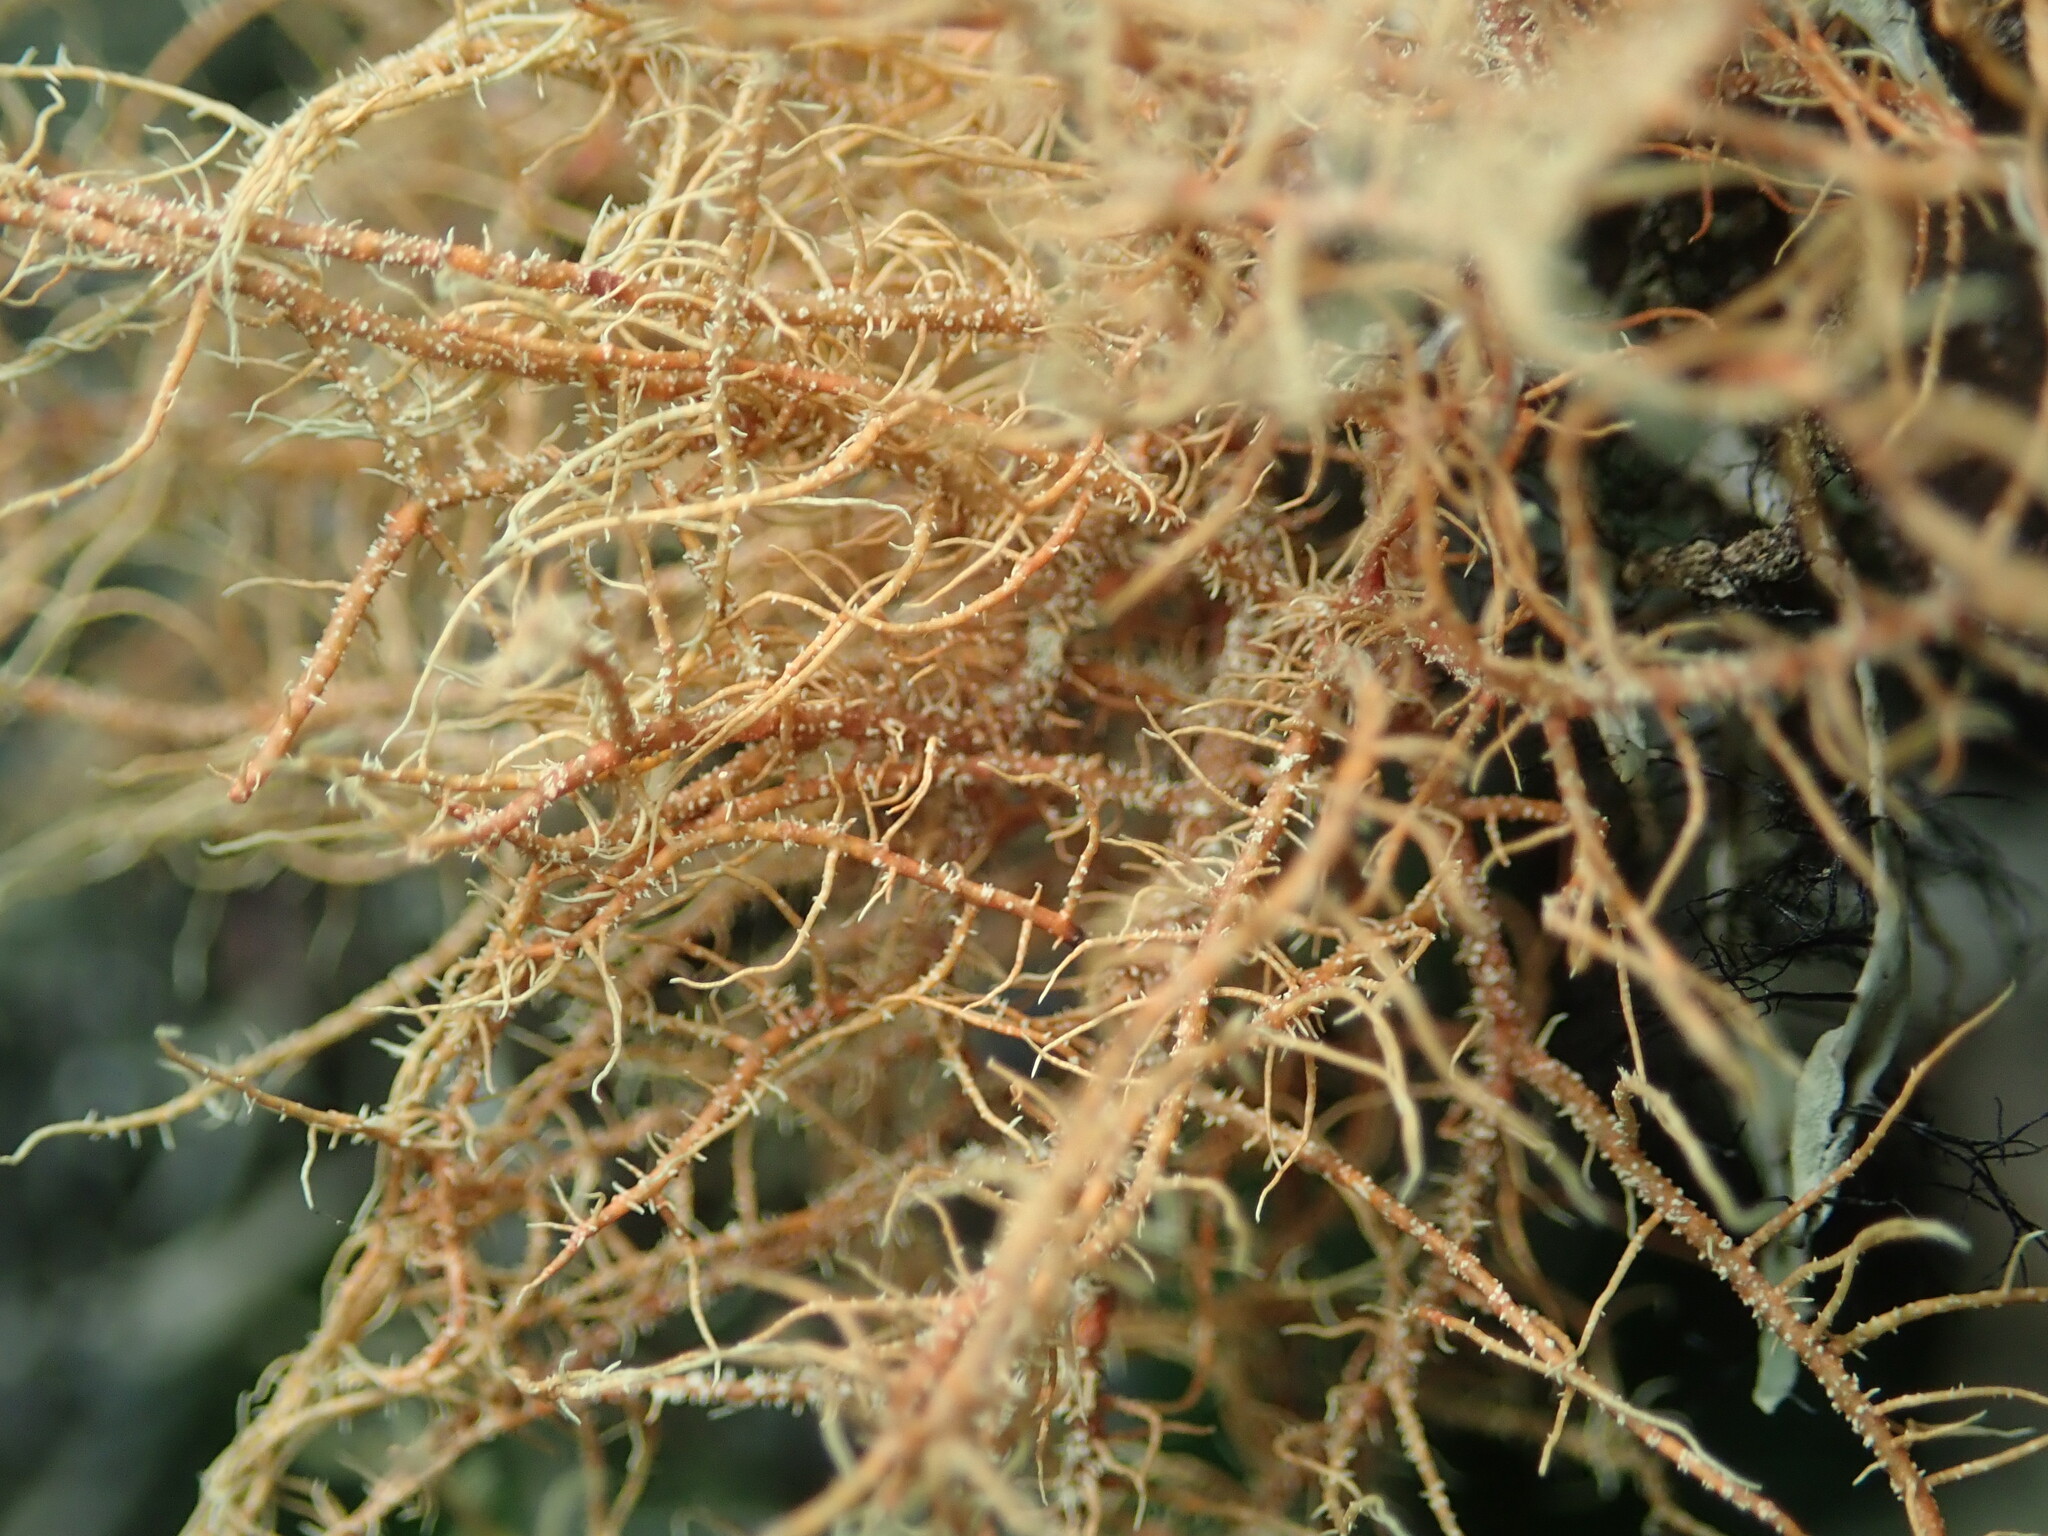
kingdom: Fungi
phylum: Ascomycota
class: Lecanoromycetes
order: Lecanorales
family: Parmeliaceae
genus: Usnea
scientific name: Usnea rubicunda
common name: Red beard lichen
